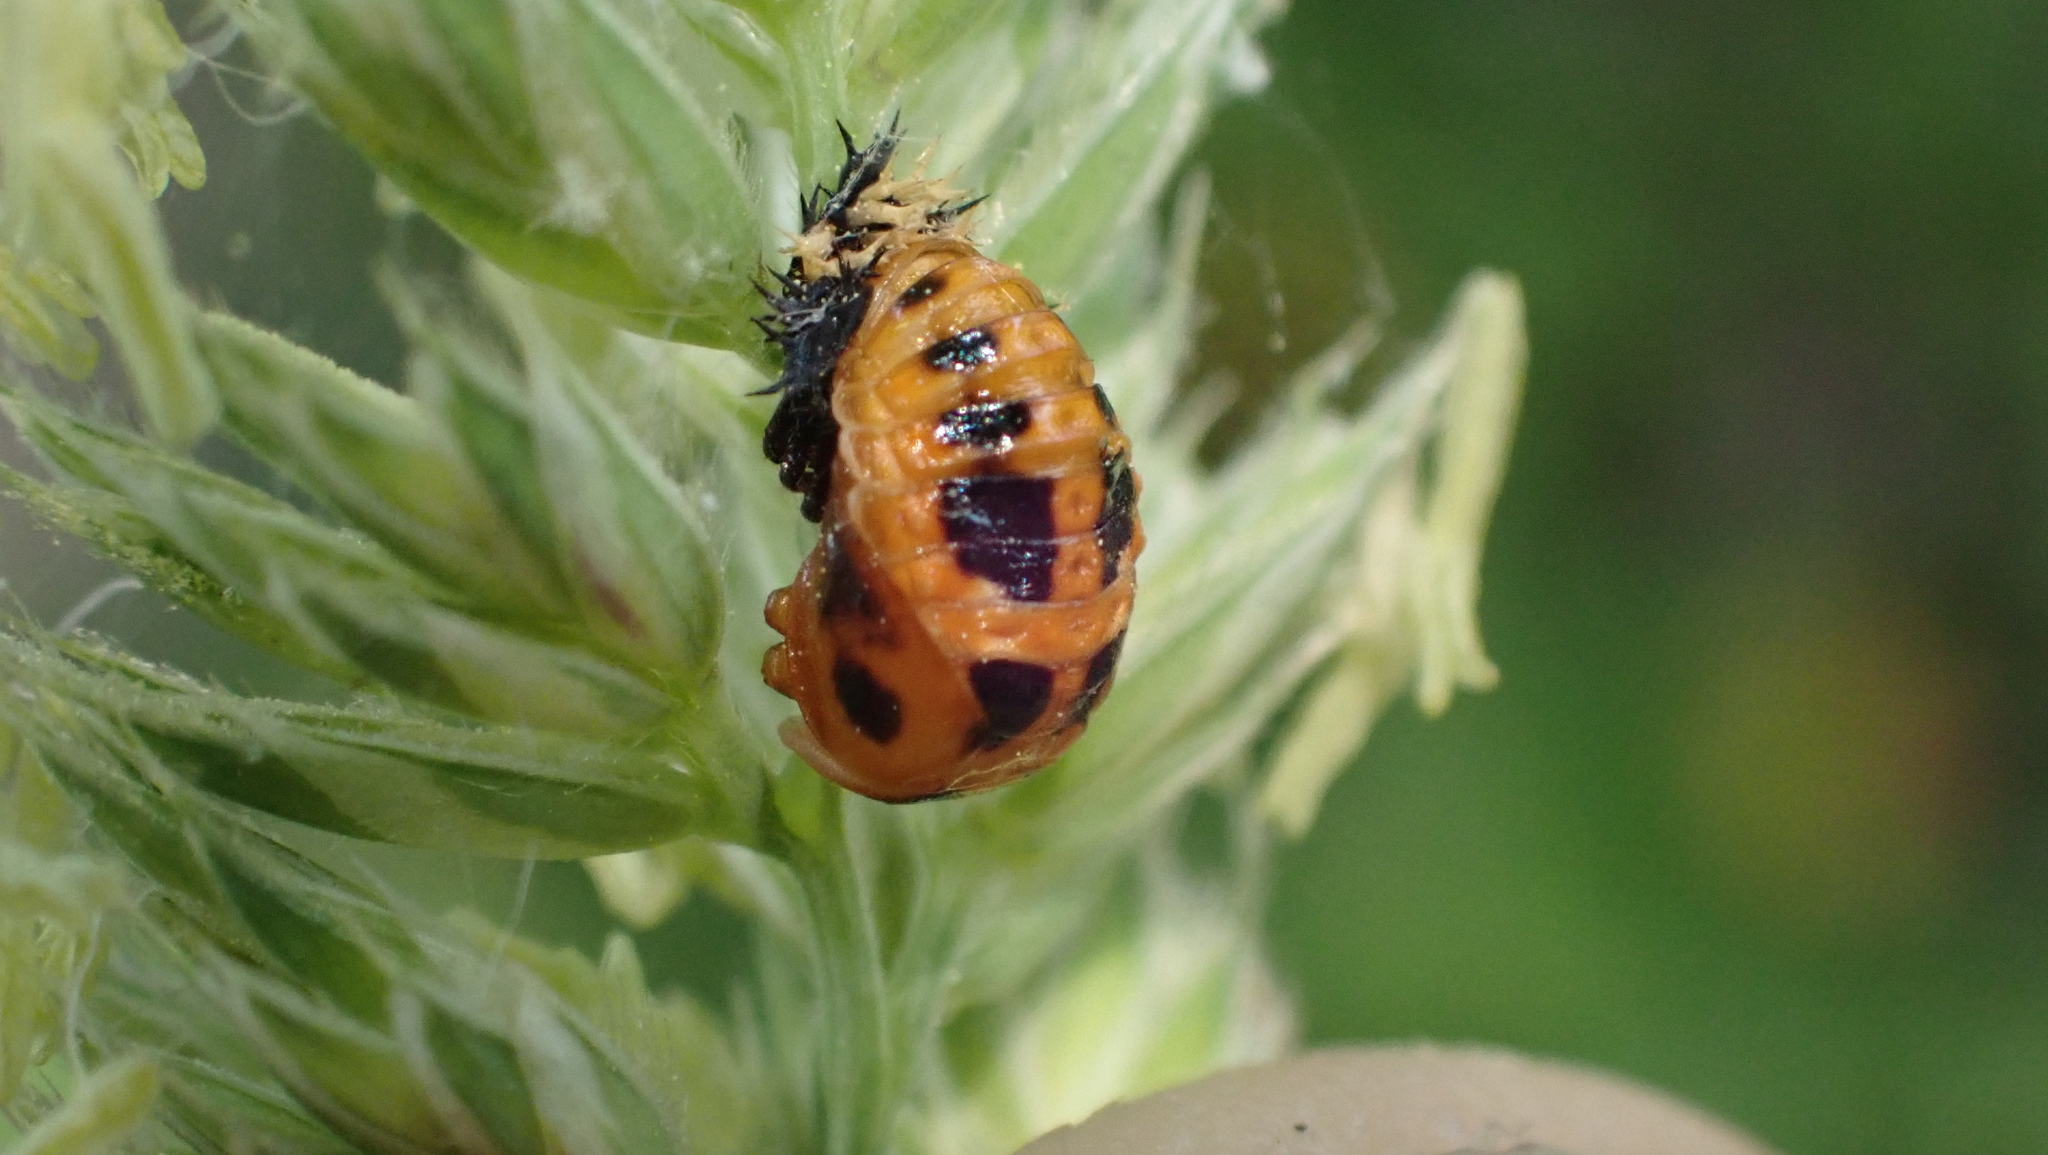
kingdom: Animalia
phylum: Arthropoda
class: Insecta
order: Coleoptera
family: Coccinellidae
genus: Harmonia
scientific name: Harmonia axyridis
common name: Harlequin ladybird
